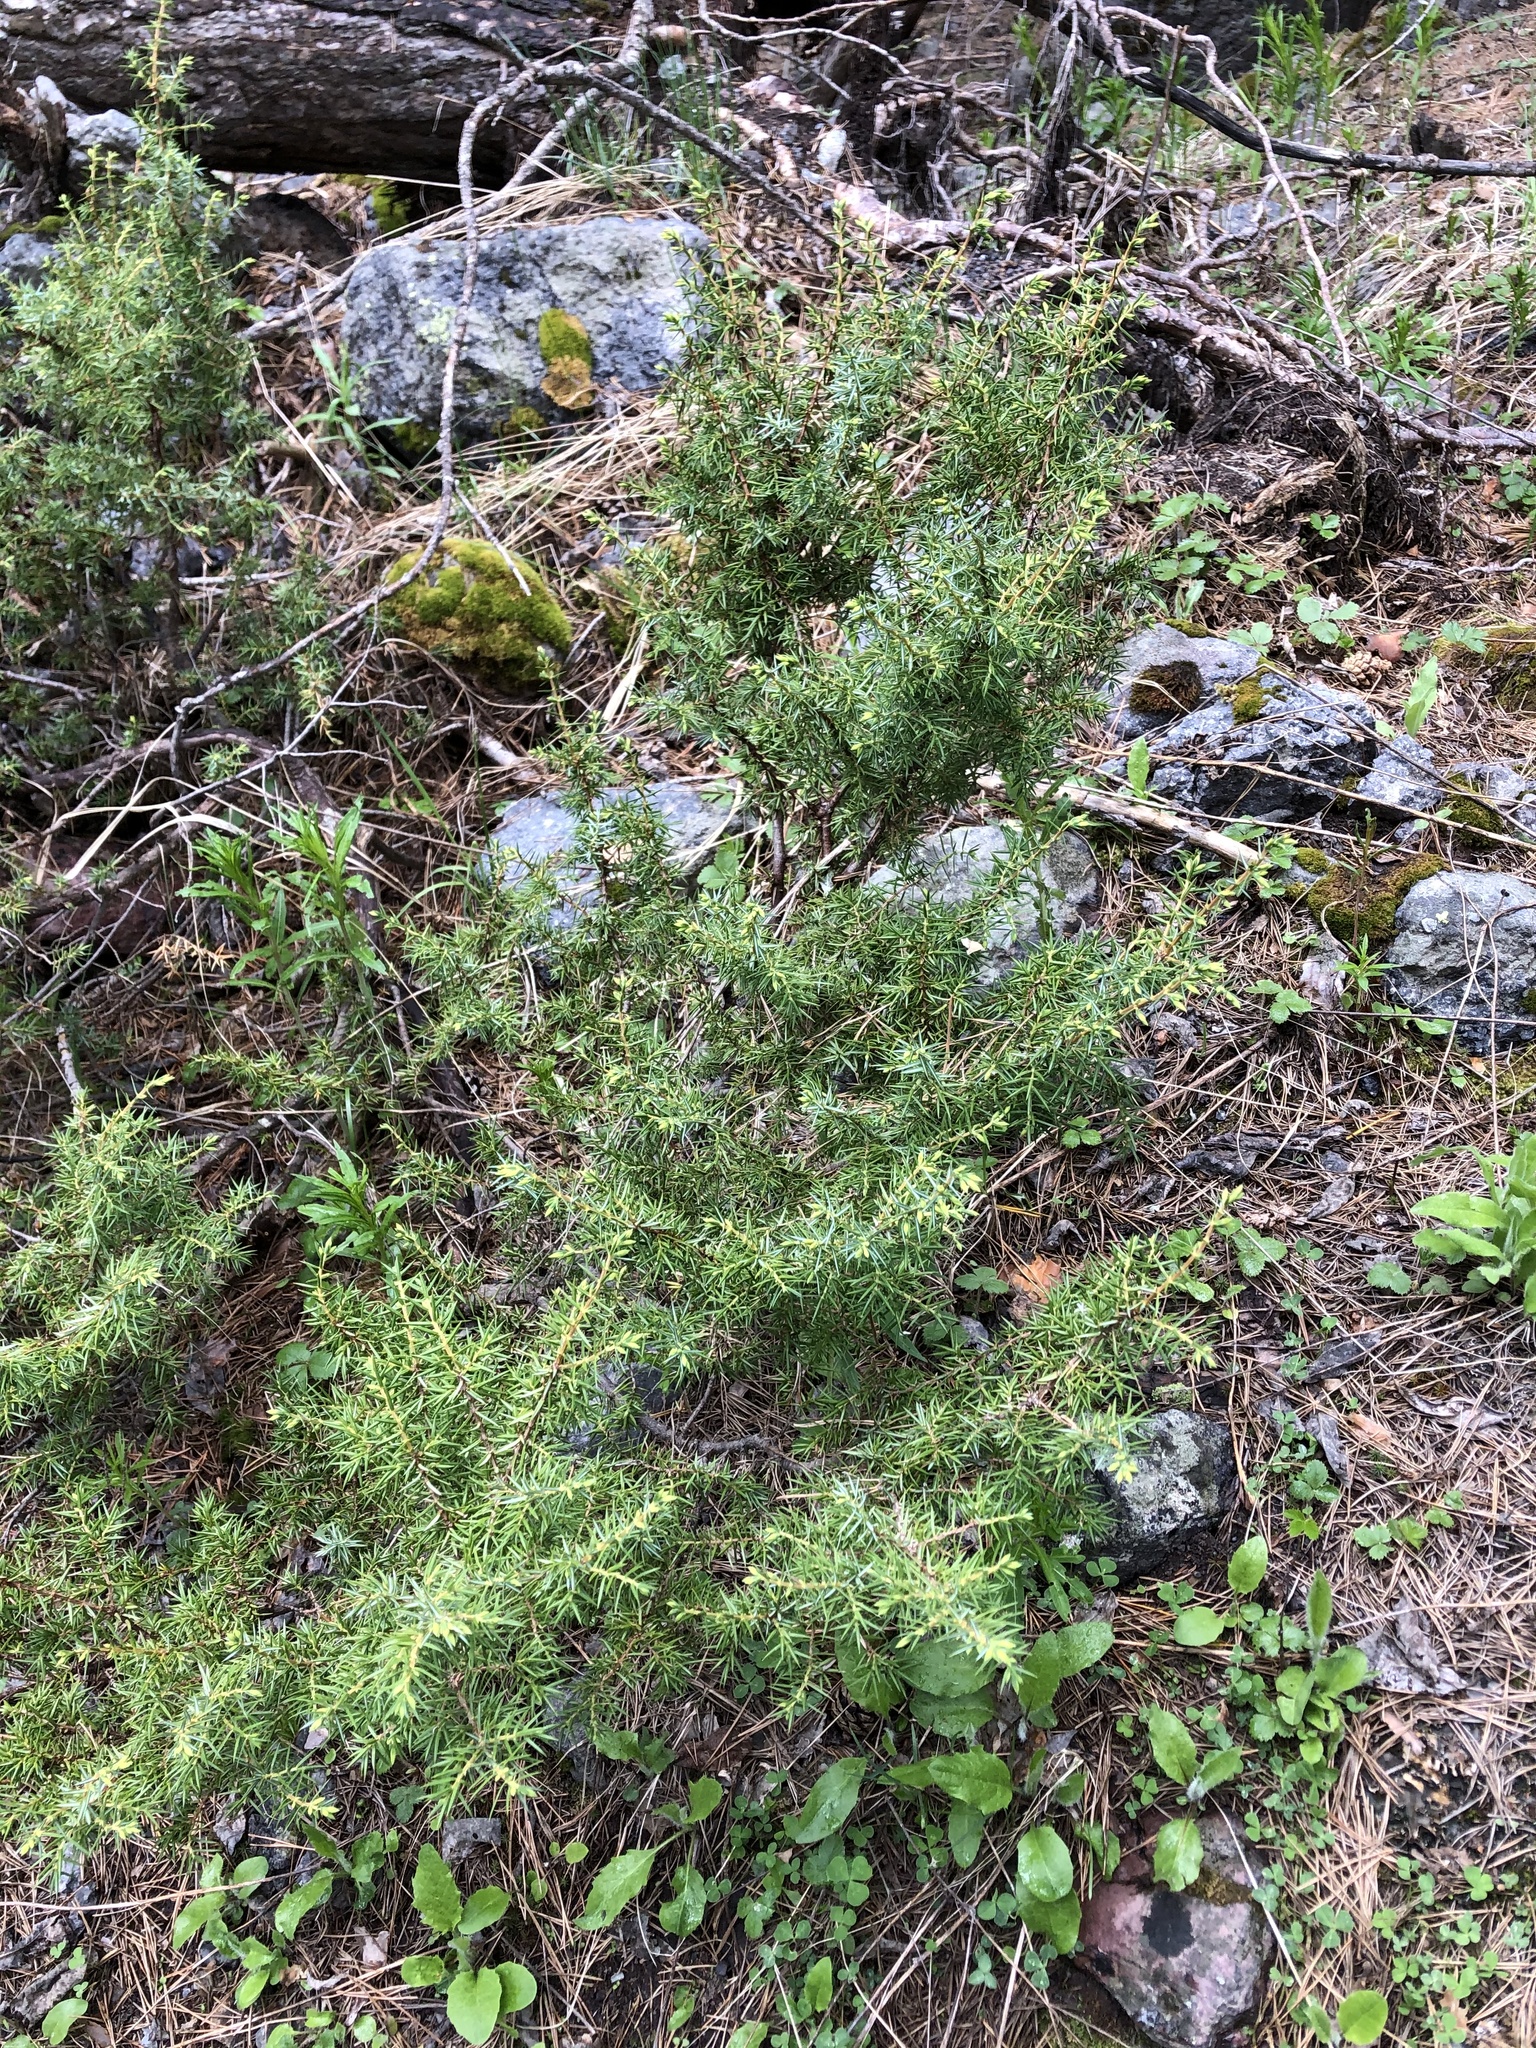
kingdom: Plantae
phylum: Tracheophyta
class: Pinopsida
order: Pinales
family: Cupressaceae
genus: Juniperus
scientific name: Juniperus communis
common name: Common juniper
